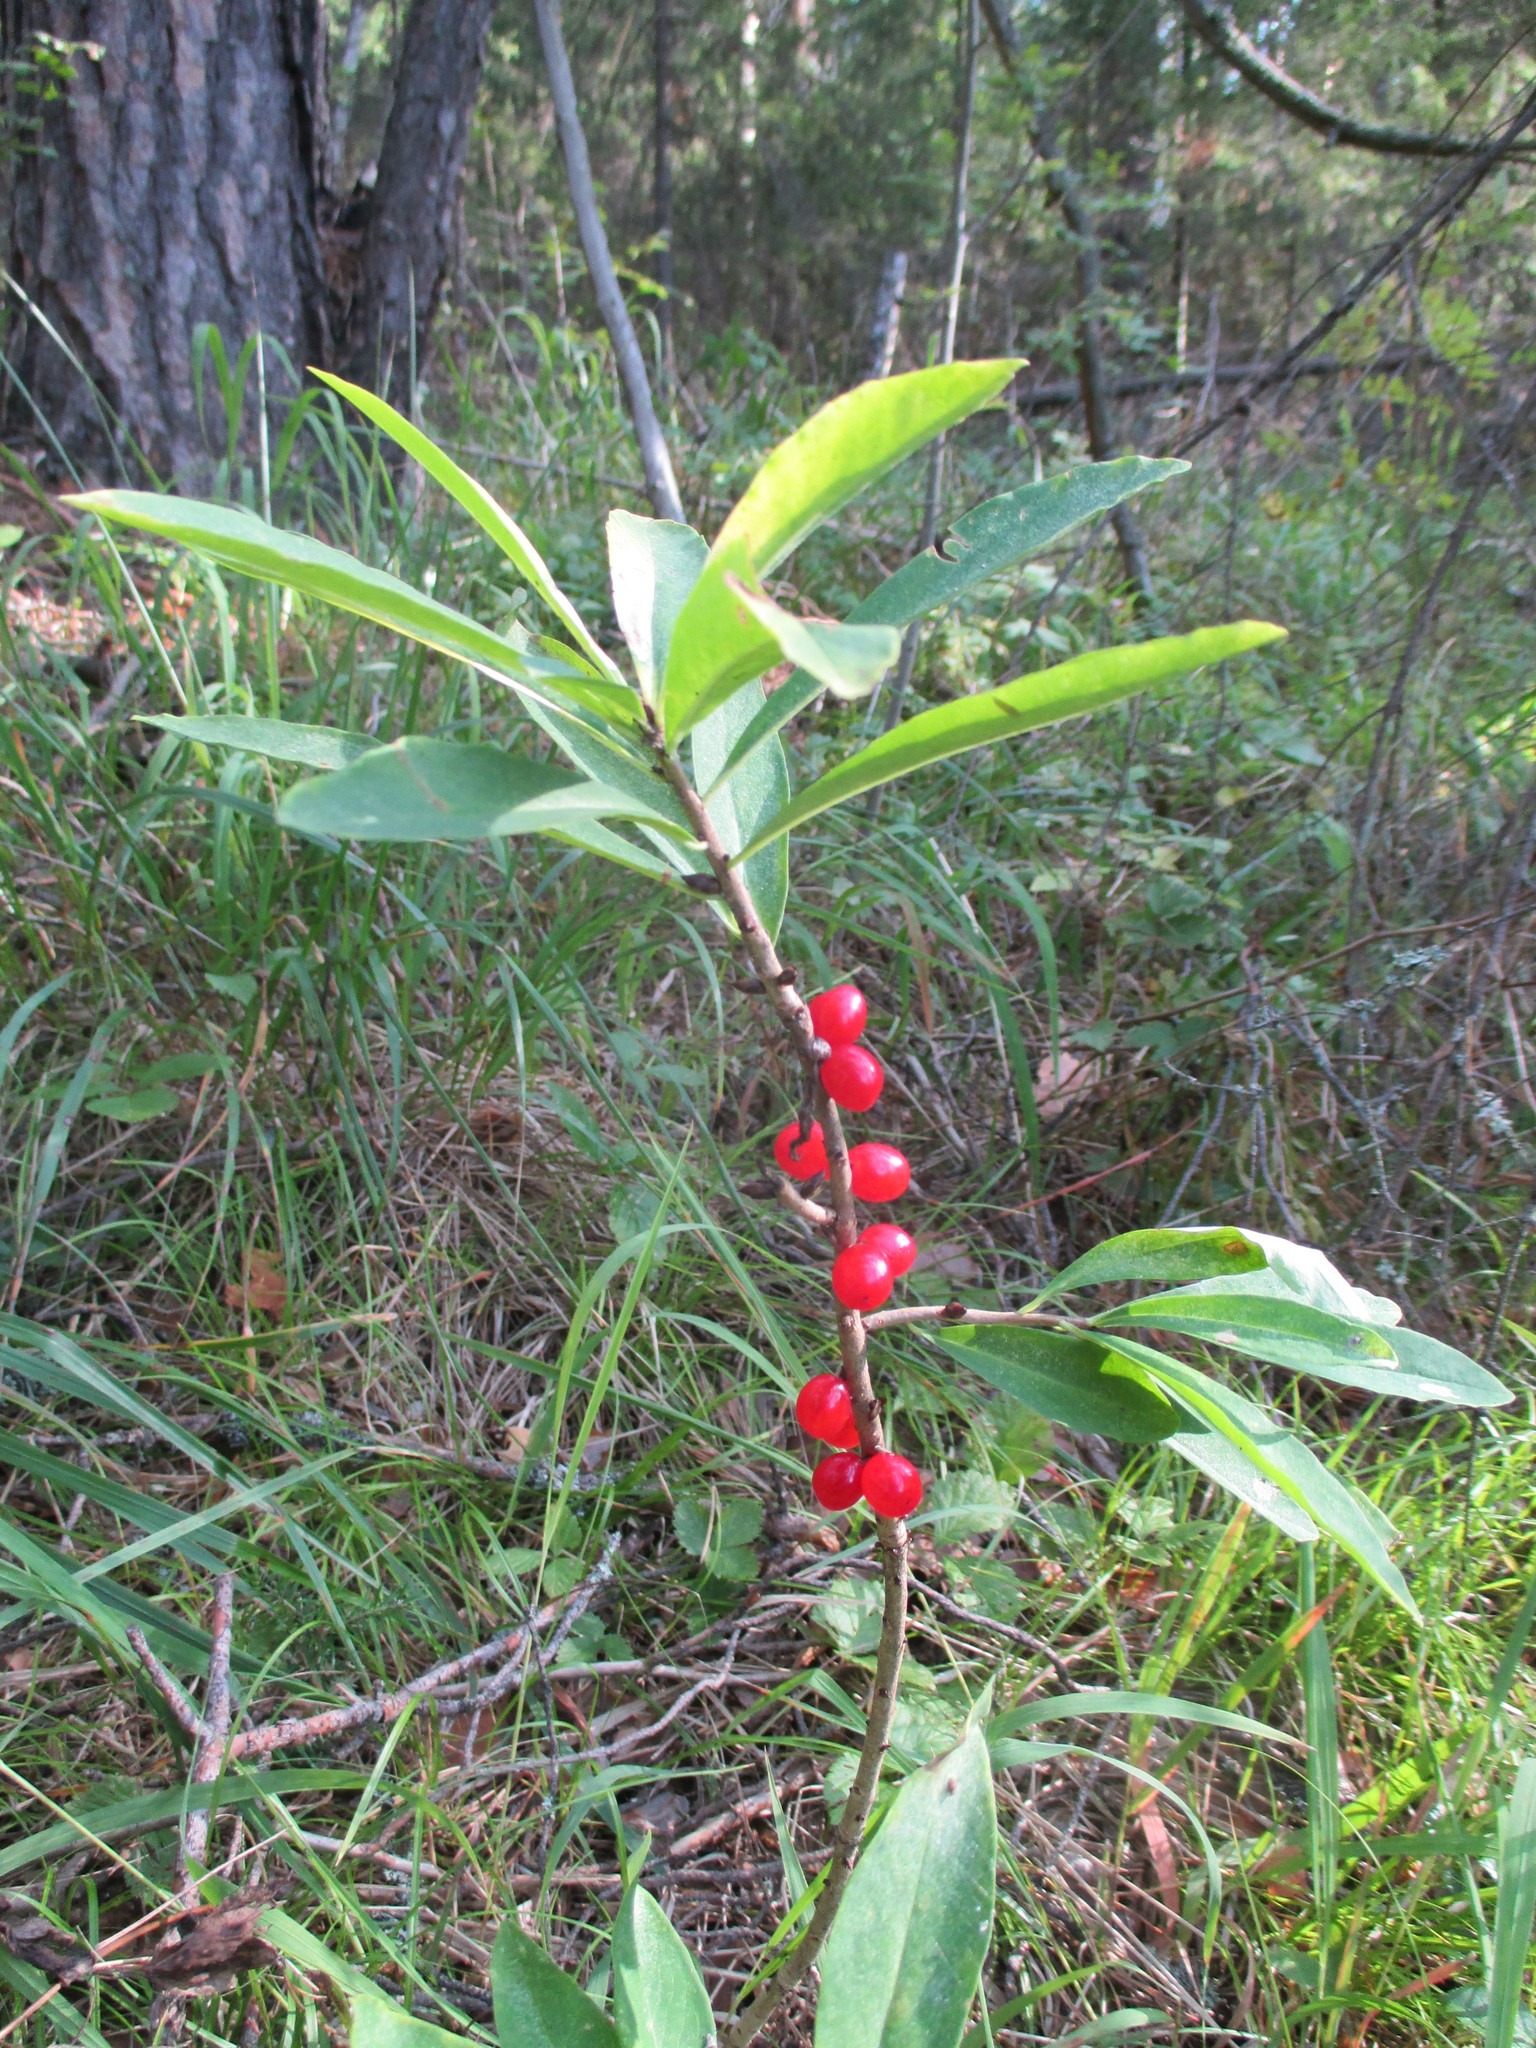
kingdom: Plantae
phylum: Tracheophyta
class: Magnoliopsida
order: Malvales
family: Thymelaeaceae
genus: Daphne
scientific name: Daphne mezereum
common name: Mezereon
